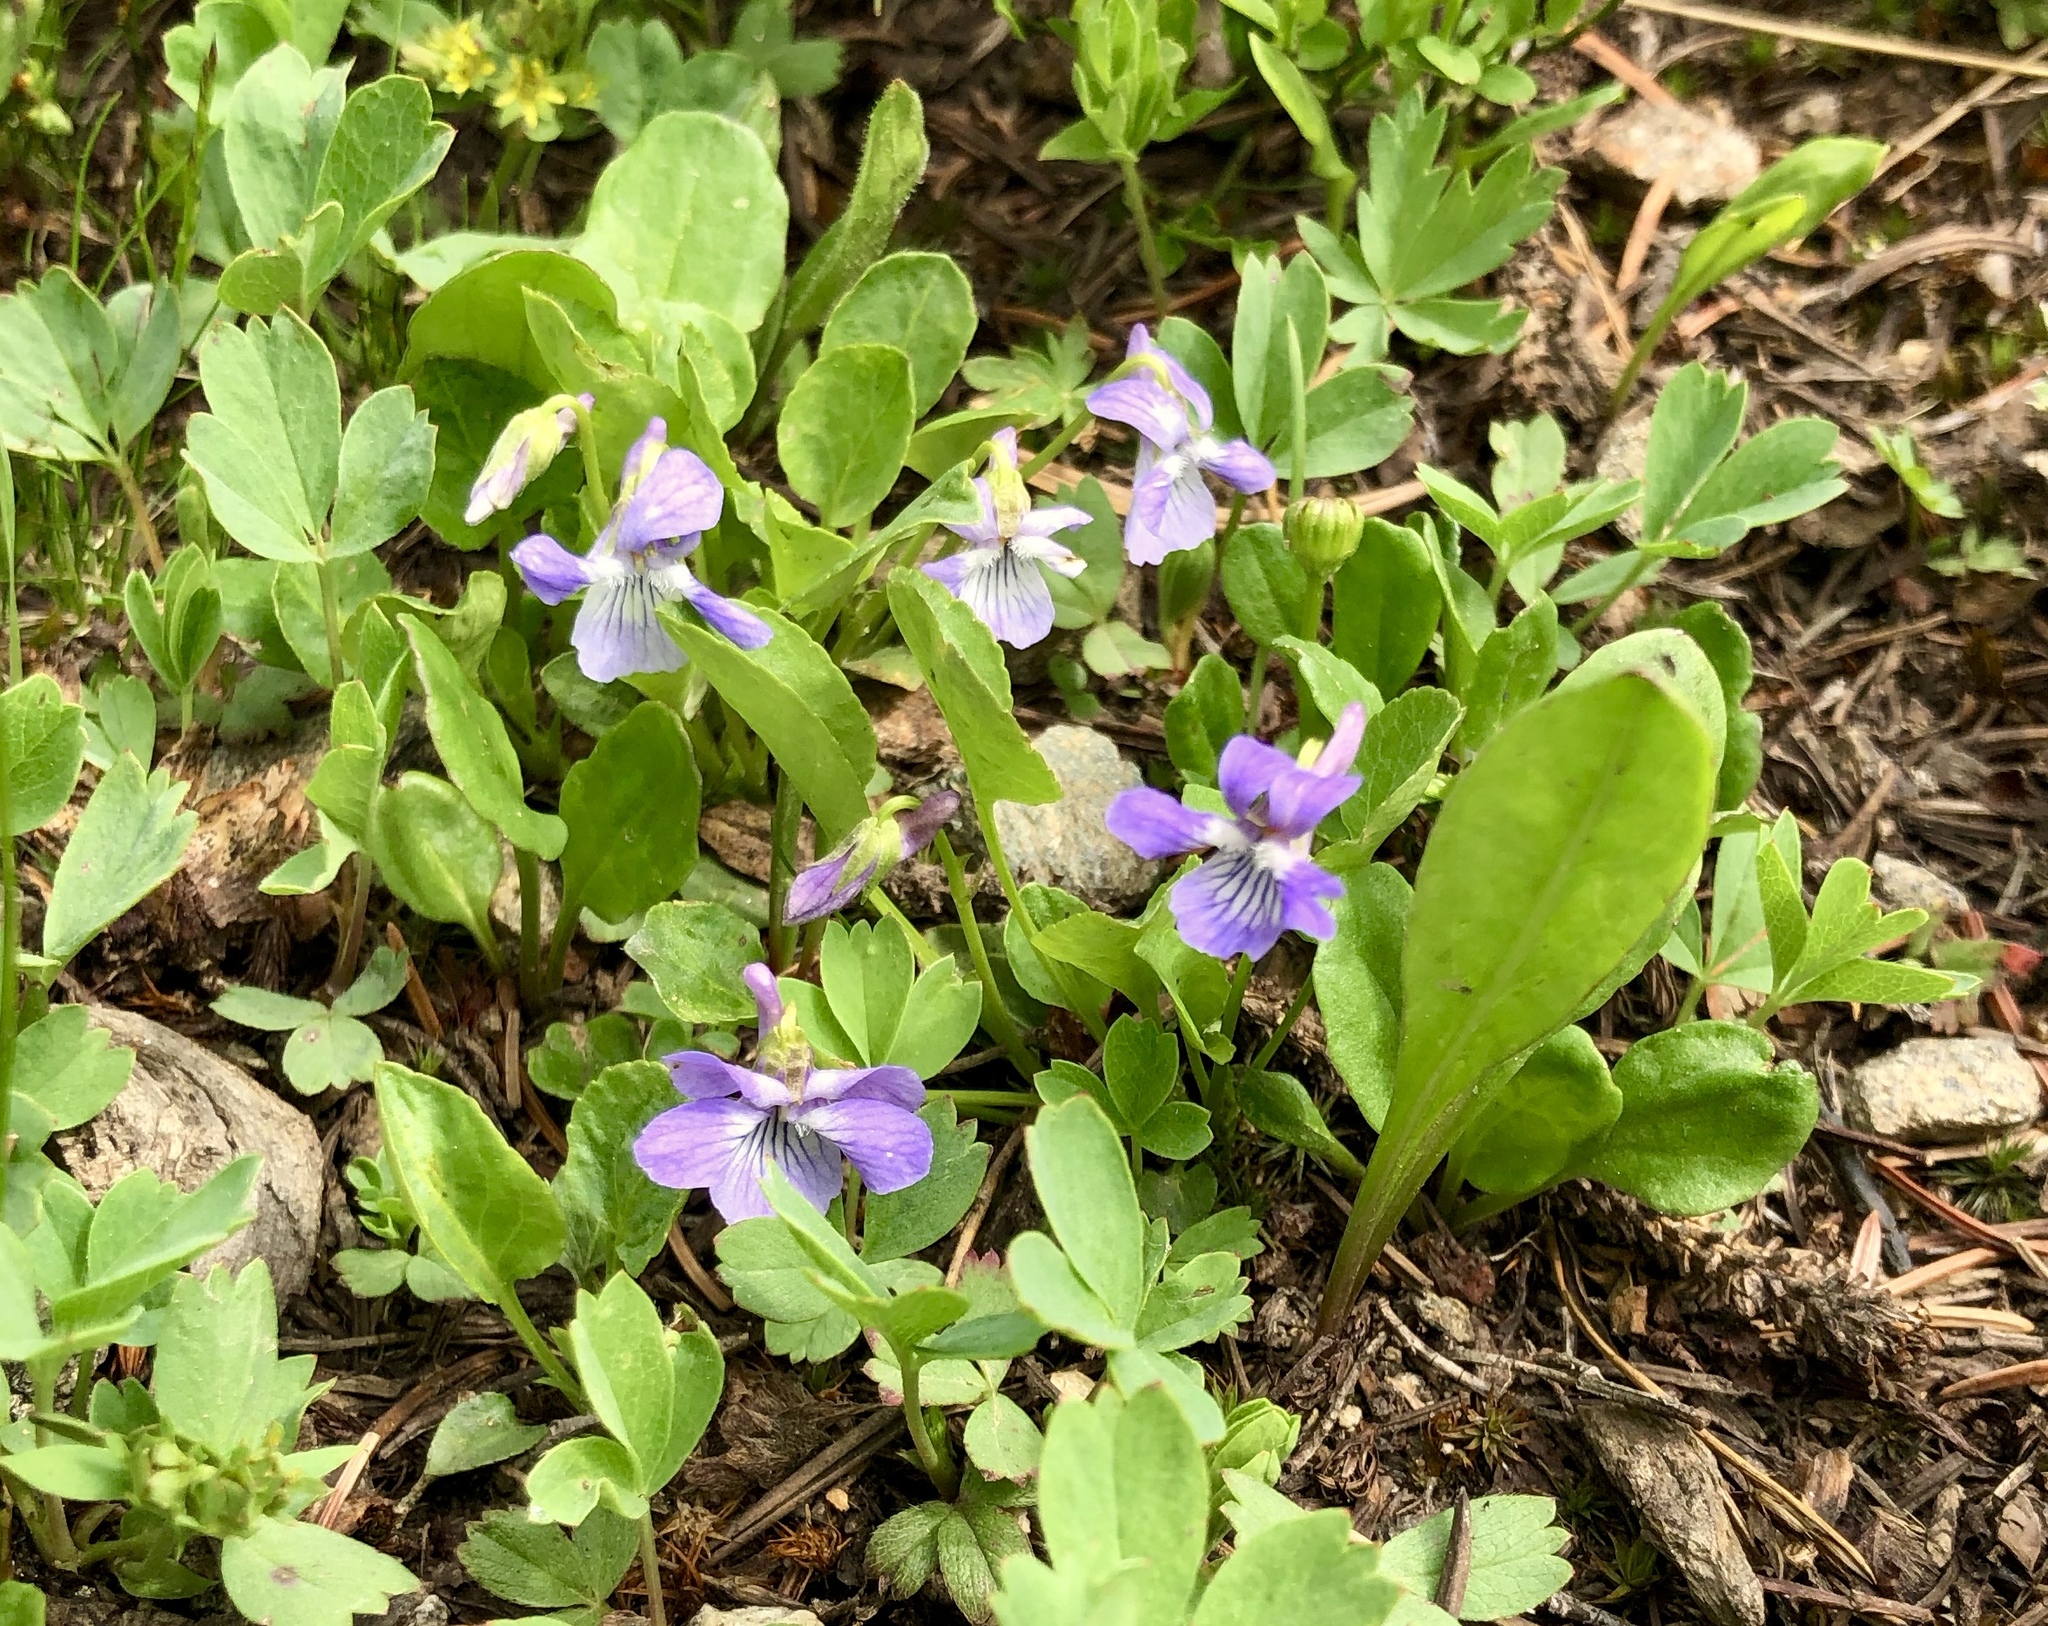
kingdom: Plantae
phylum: Tracheophyta
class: Magnoliopsida
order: Malpighiales
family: Violaceae
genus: Viola
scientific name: Viola adunca
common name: Sand violet
